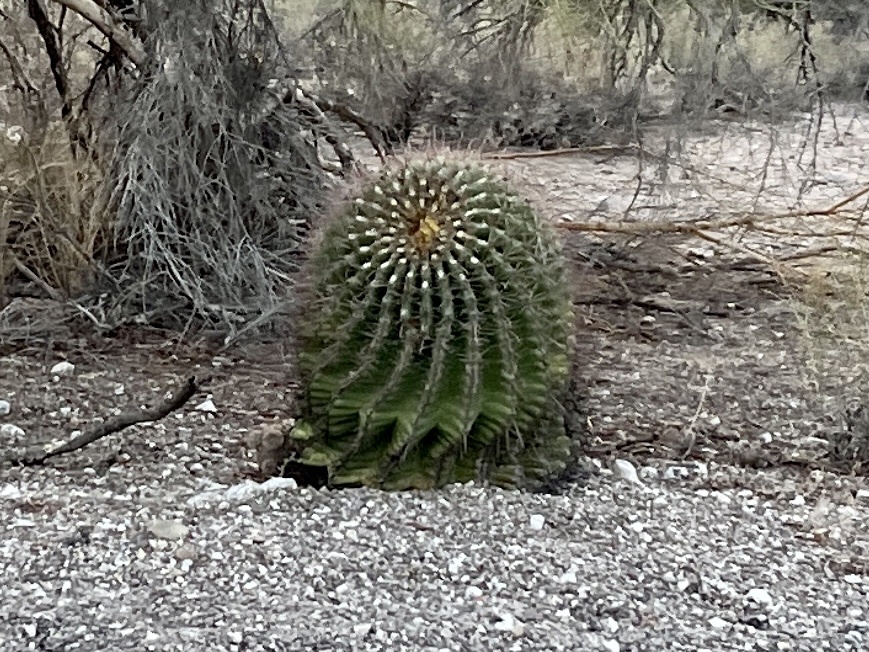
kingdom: Plantae
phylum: Tracheophyta
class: Magnoliopsida
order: Caryophyllales
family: Cactaceae
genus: Ferocactus
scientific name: Ferocactus wislizeni
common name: Candy barrel cactus
